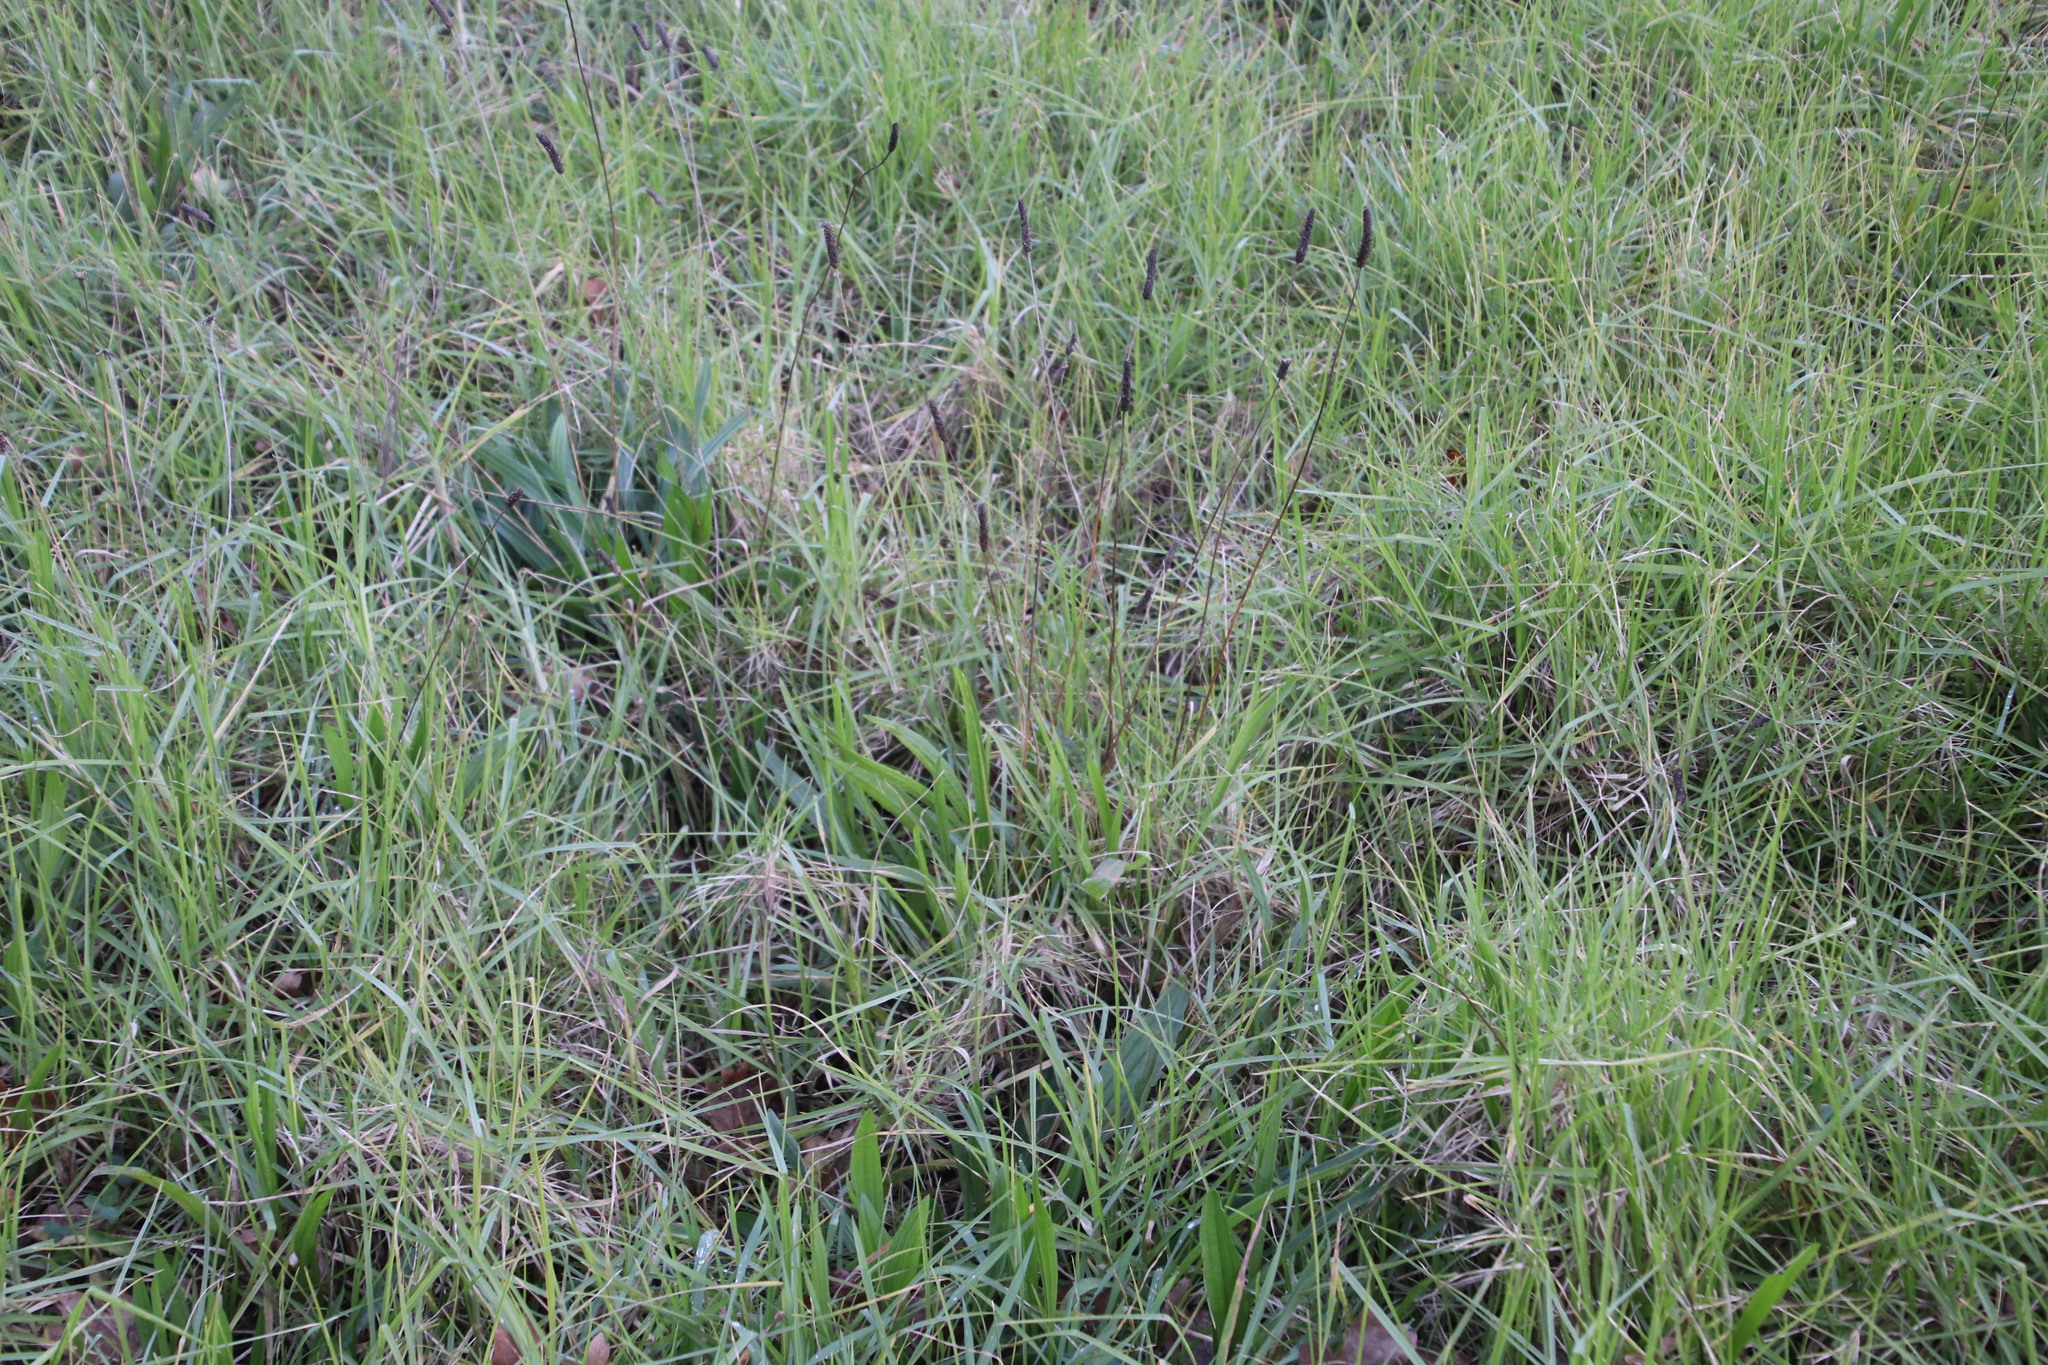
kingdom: Plantae
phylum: Tracheophyta
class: Magnoliopsida
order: Lamiales
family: Plantaginaceae
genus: Plantago
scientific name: Plantago lanceolata
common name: Ribwort plantain
